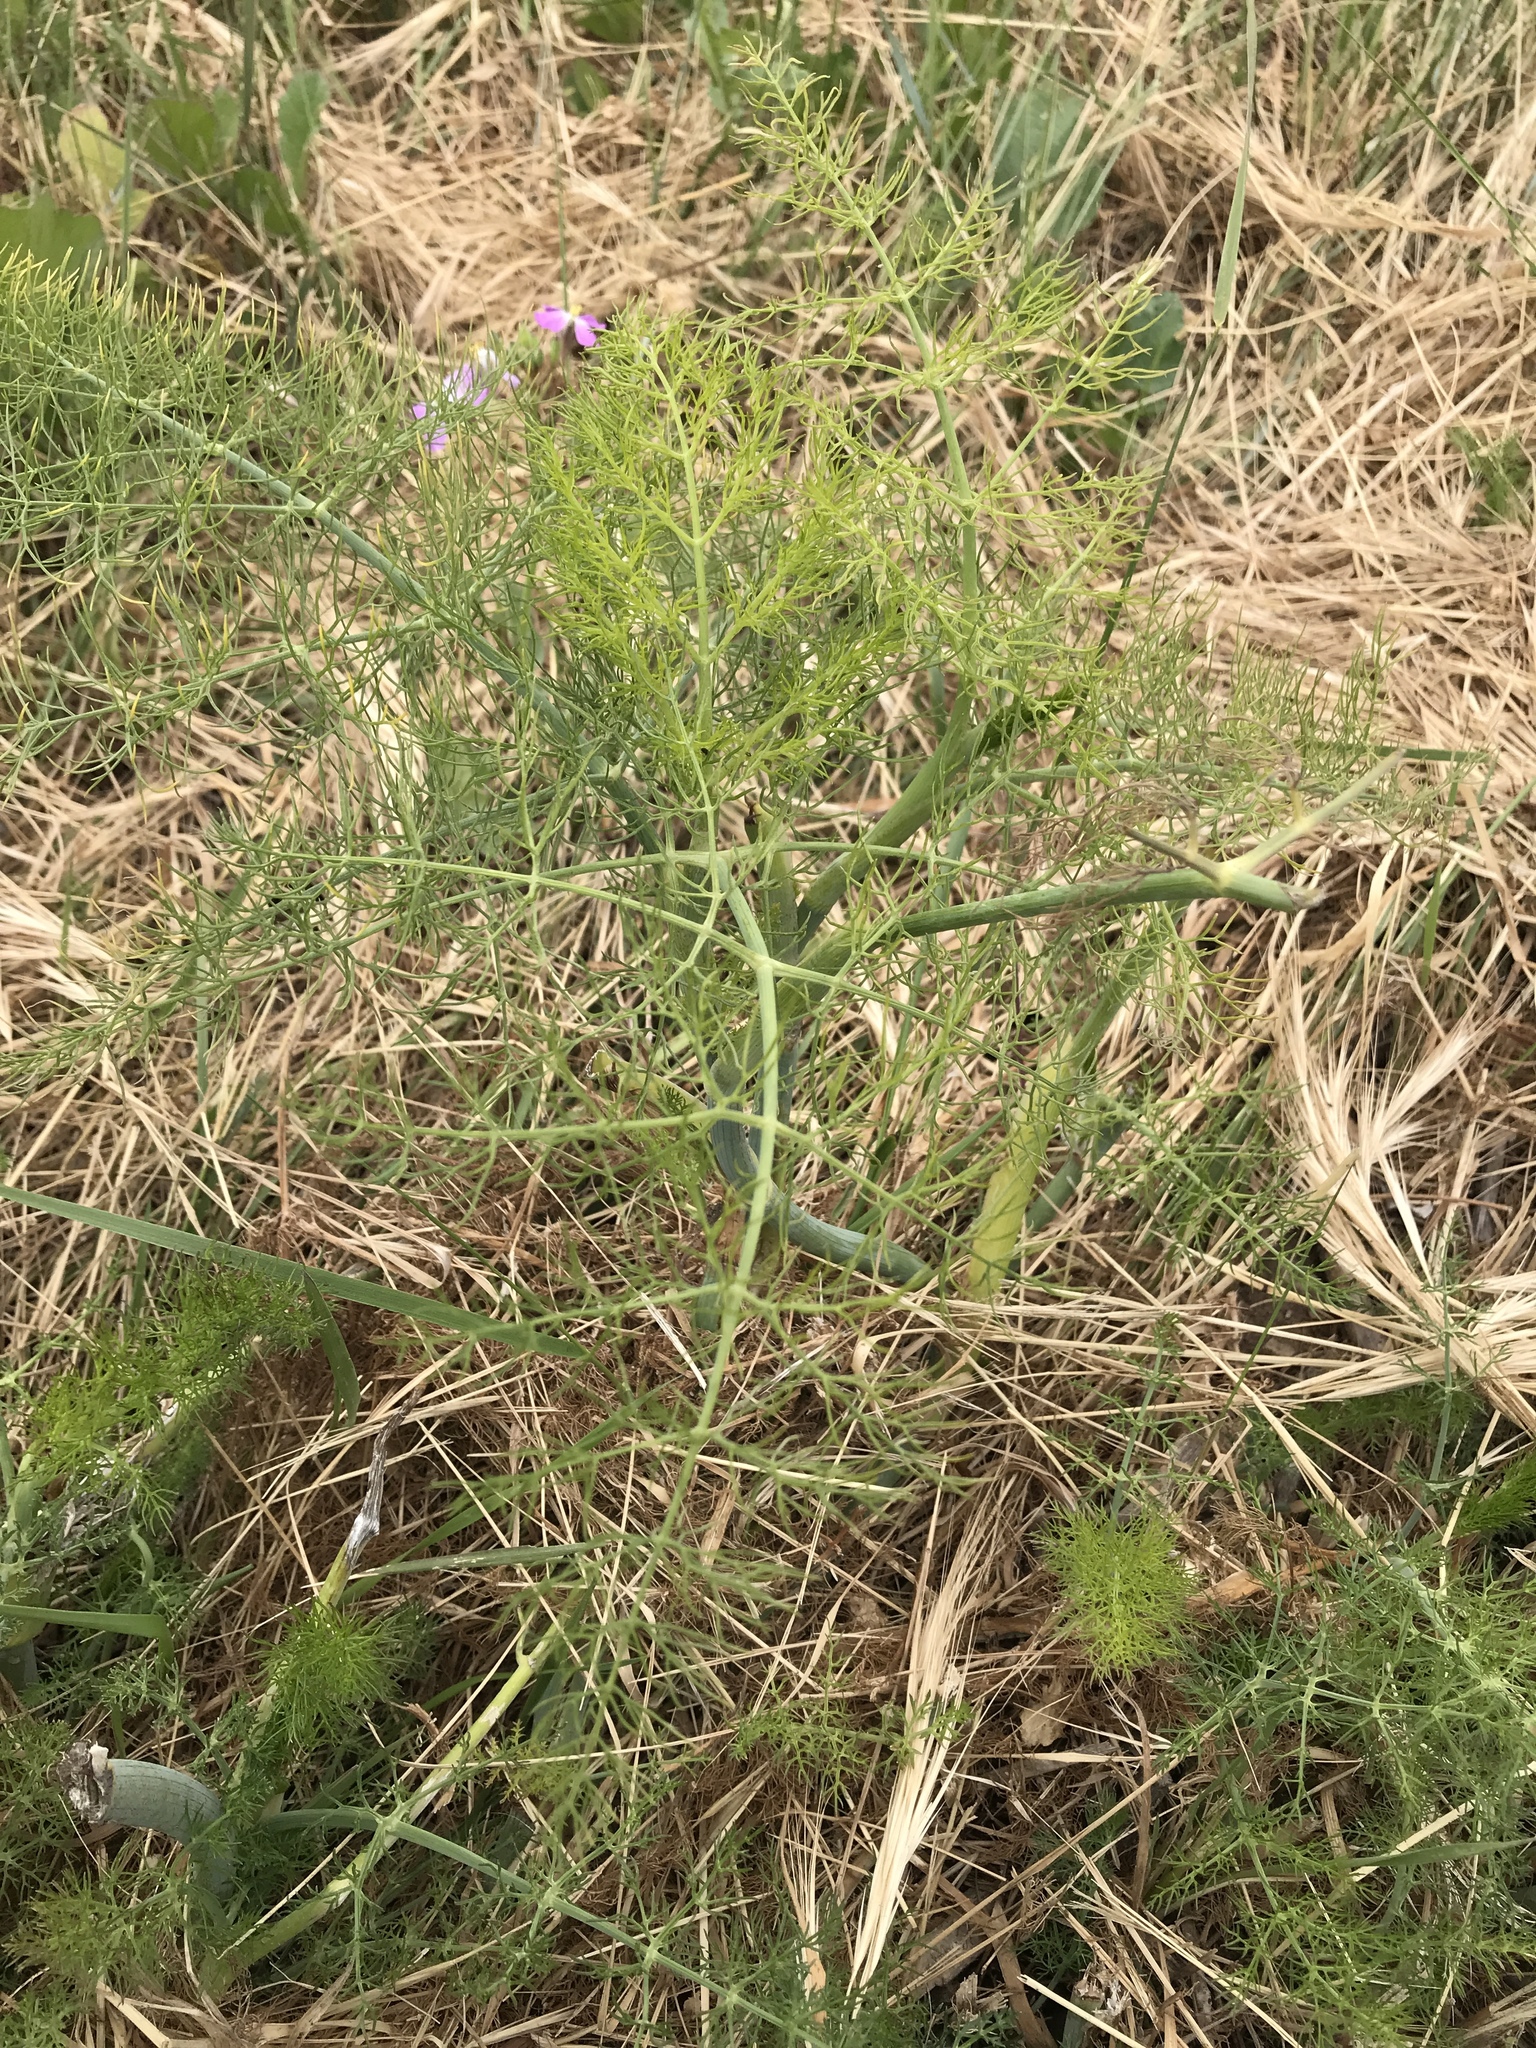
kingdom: Plantae
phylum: Tracheophyta
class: Magnoliopsida
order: Apiales
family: Apiaceae
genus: Foeniculum
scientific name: Foeniculum vulgare
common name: Fennel
